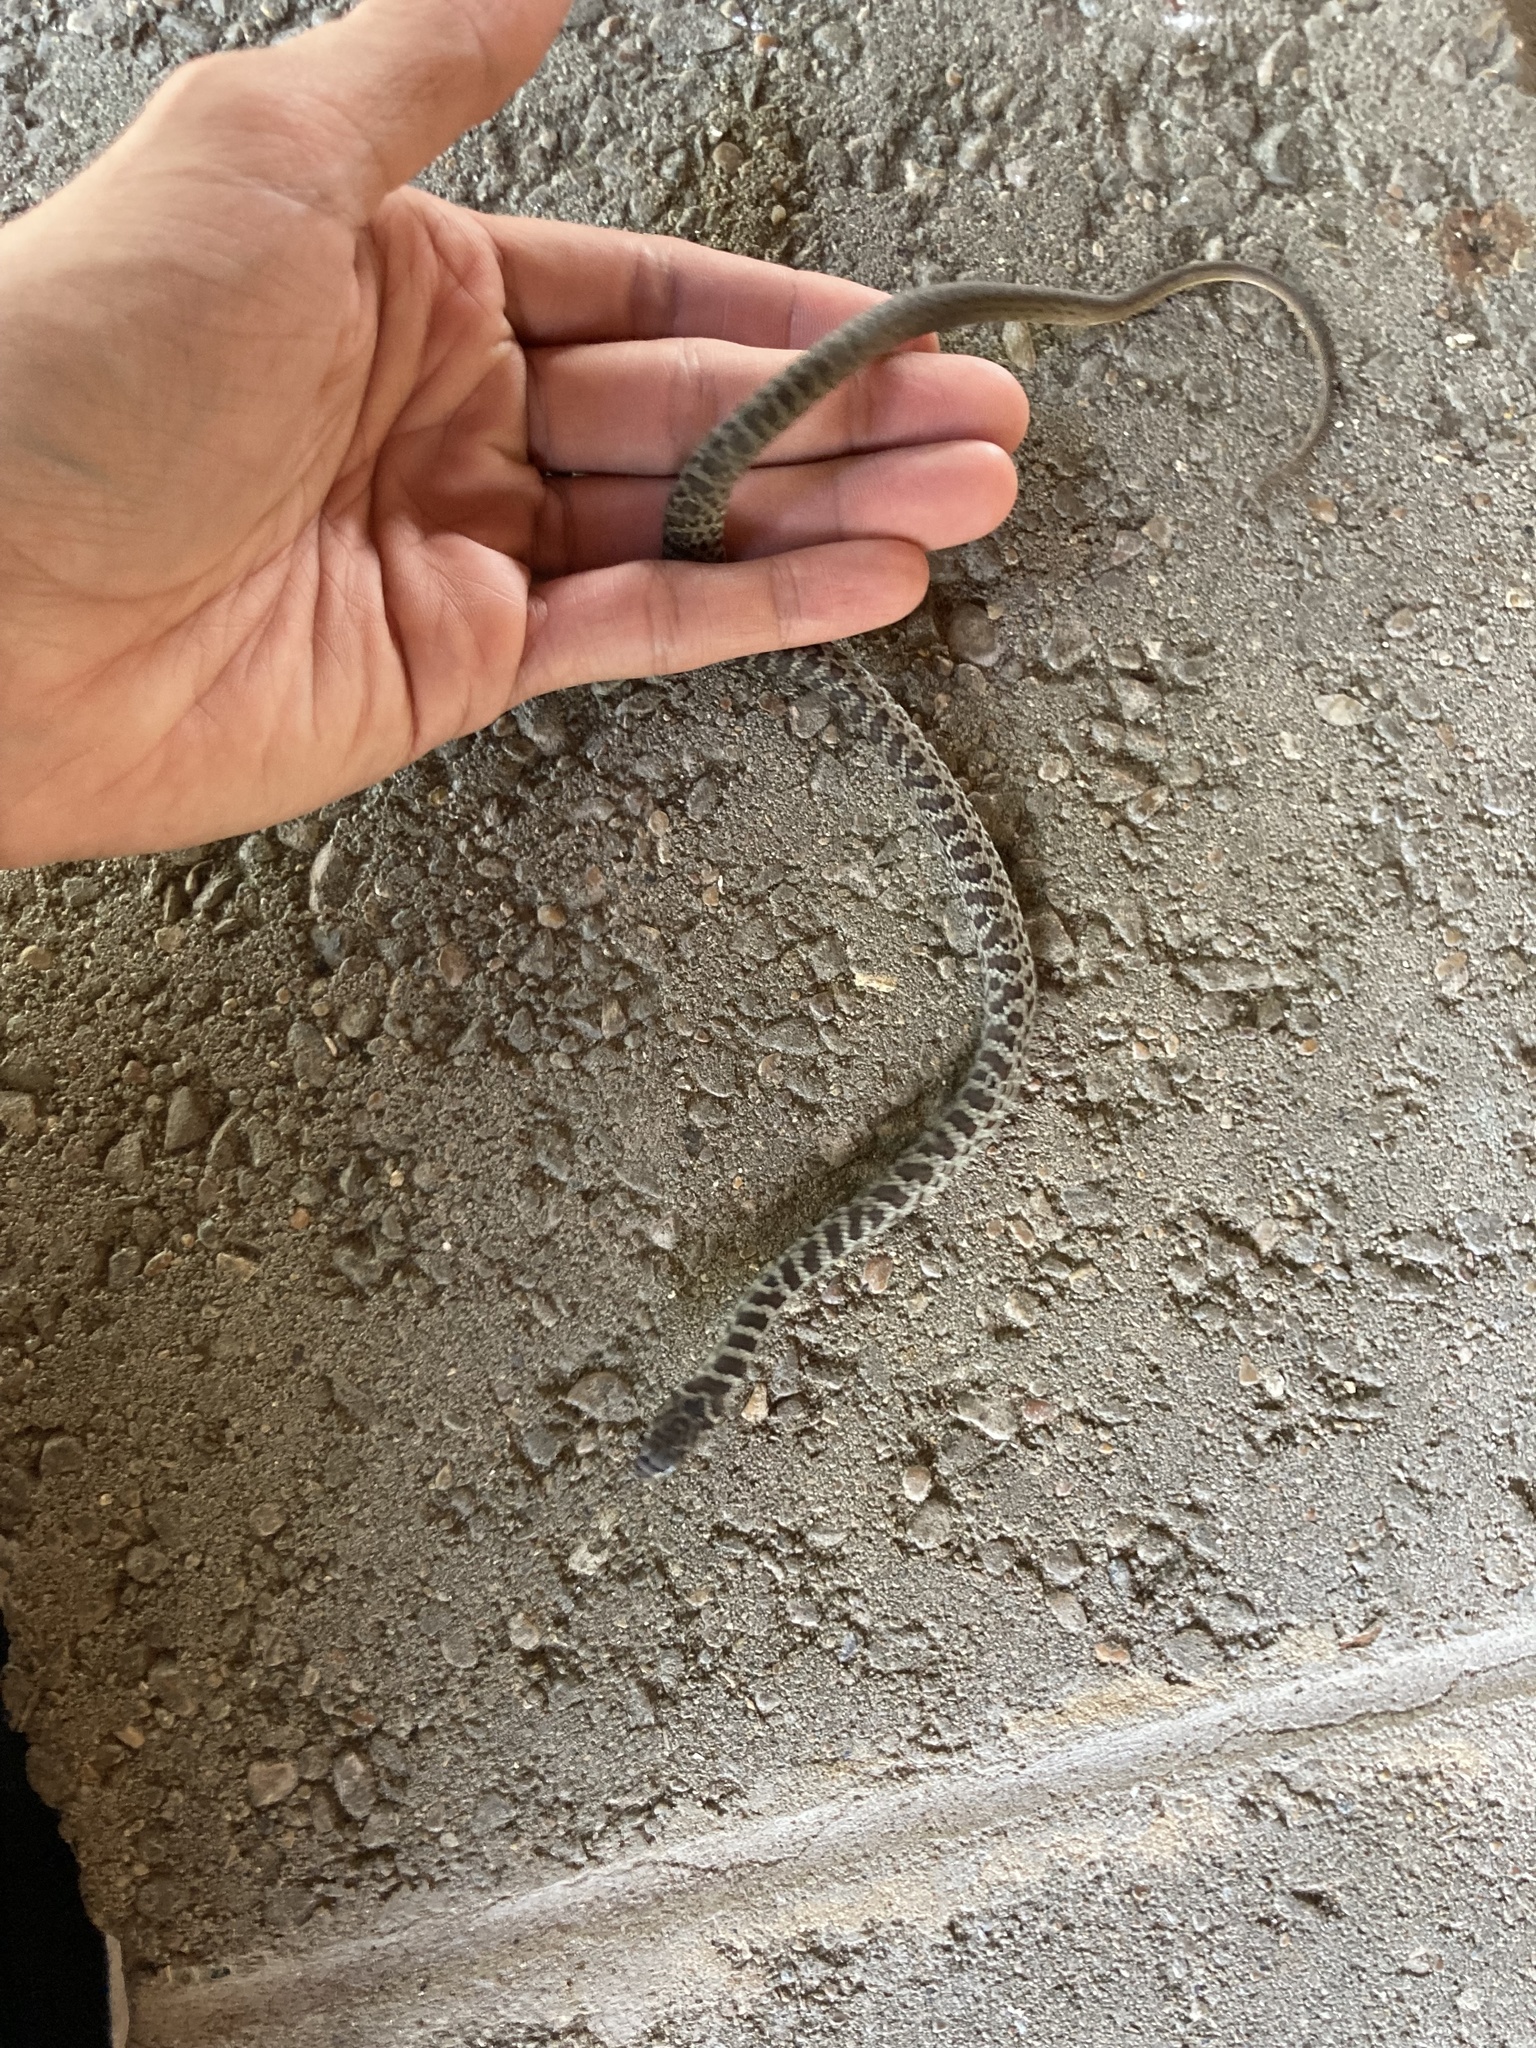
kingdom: Animalia
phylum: Chordata
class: Squamata
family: Colubridae
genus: Coluber
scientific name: Coluber constrictor
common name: Eastern racer
